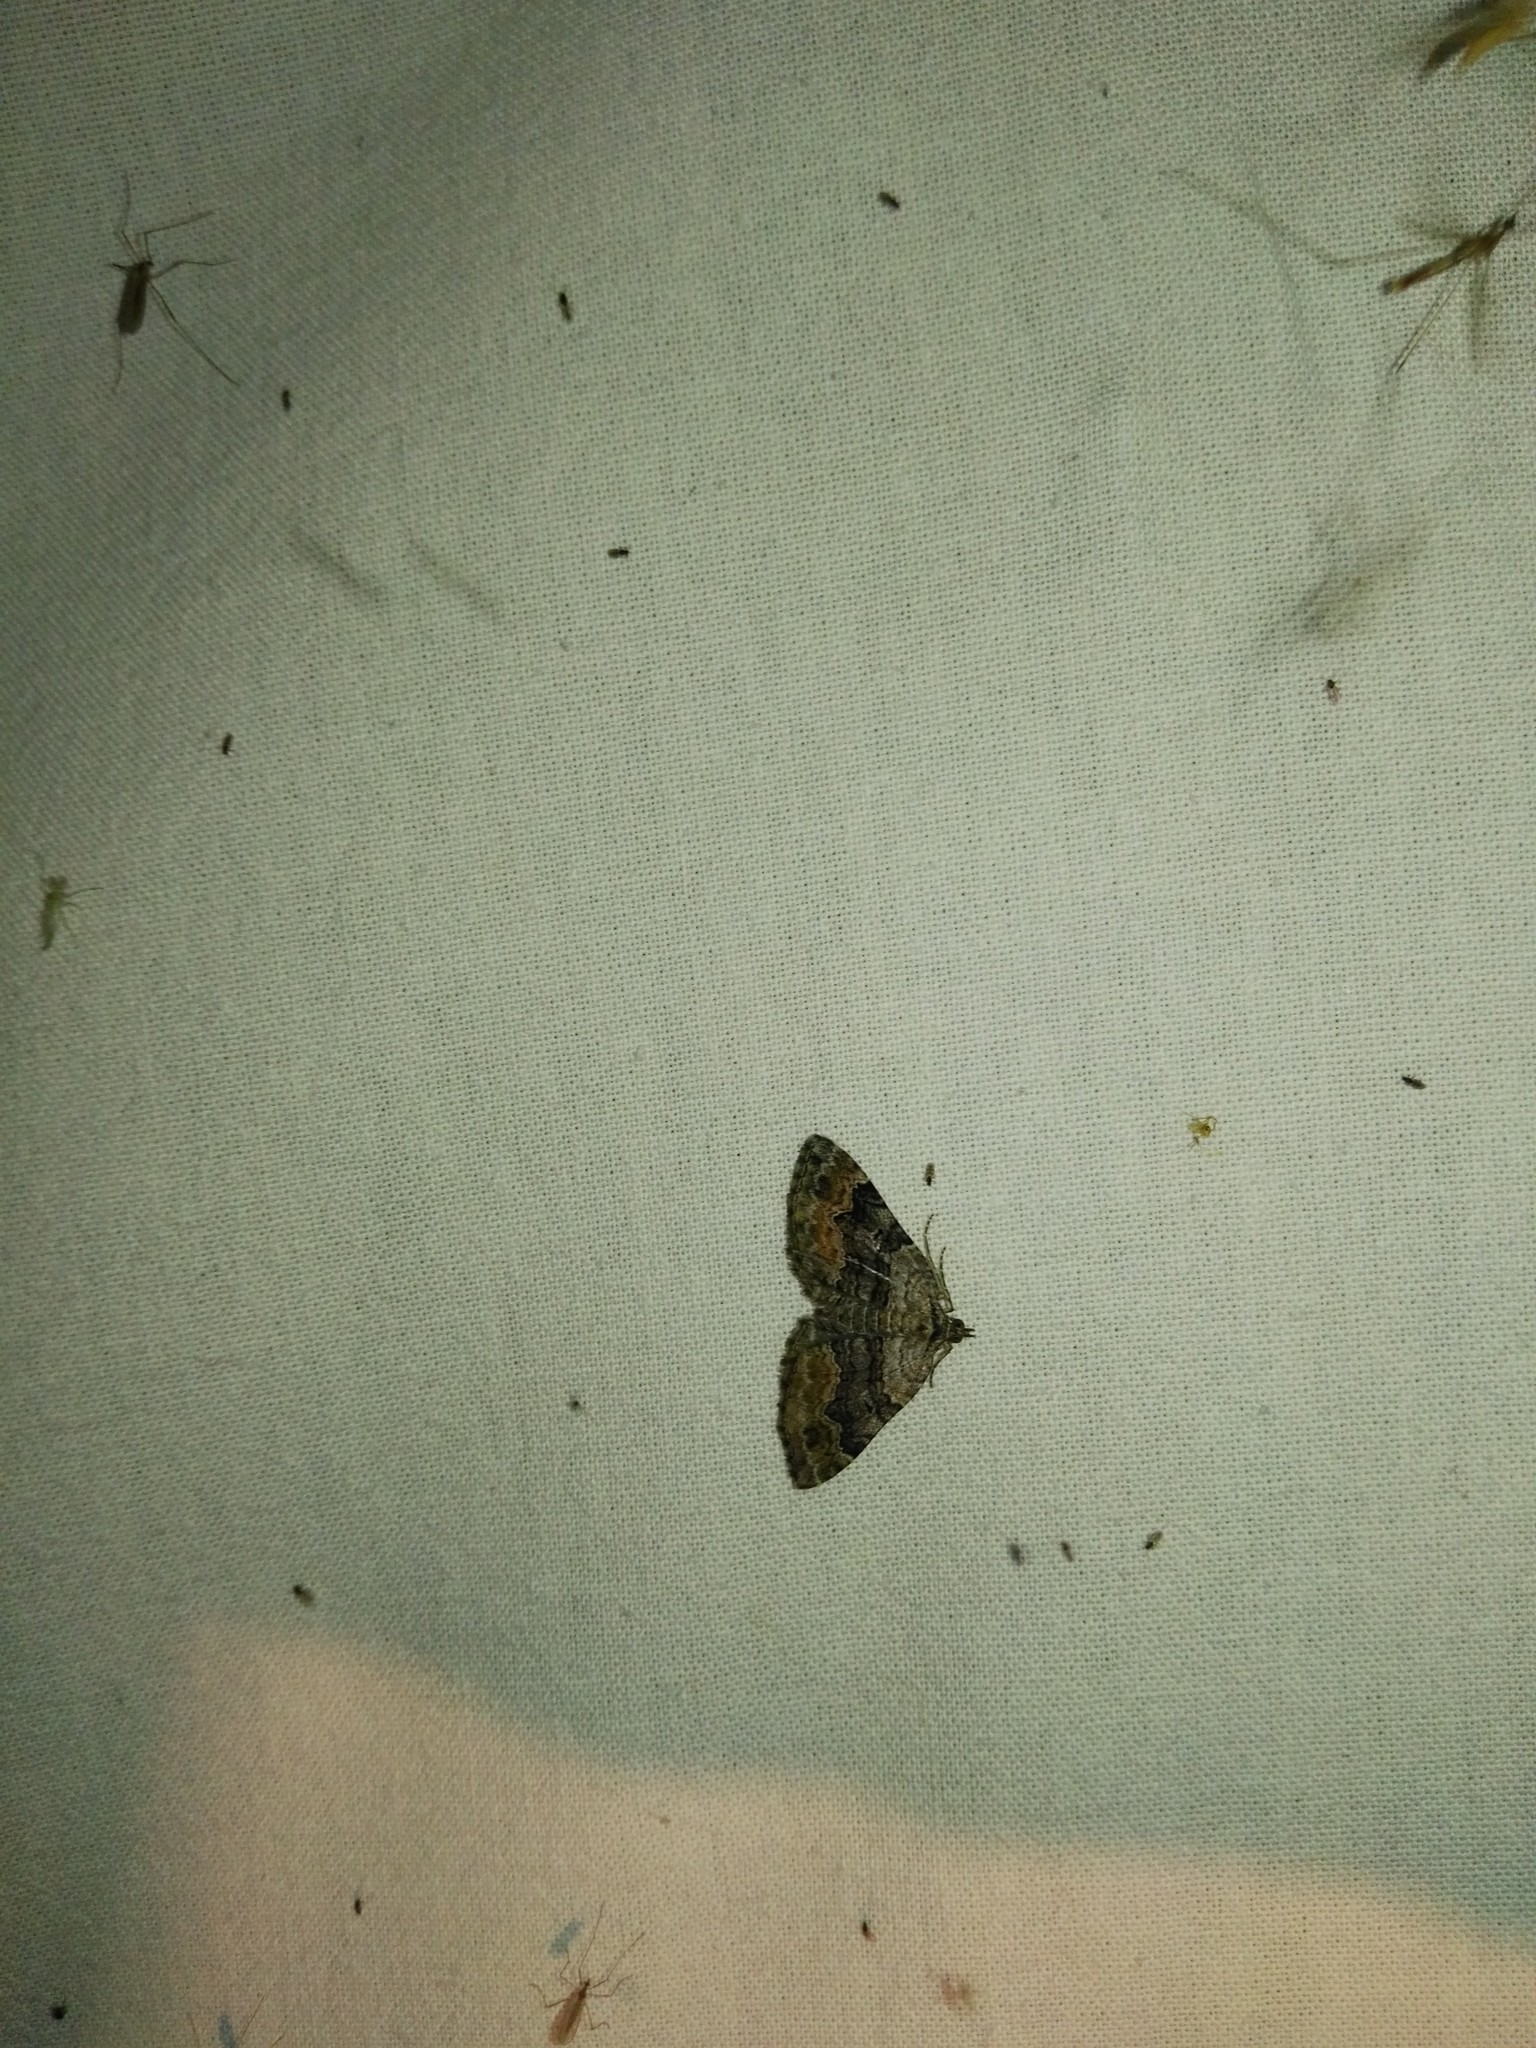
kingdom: Animalia
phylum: Arthropoda
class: Insecta
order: Lepidoptera
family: Geometridae
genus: Xanthorhoe
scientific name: Xanthorhoe quadrifasiata
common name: Large twin-spot carpet
